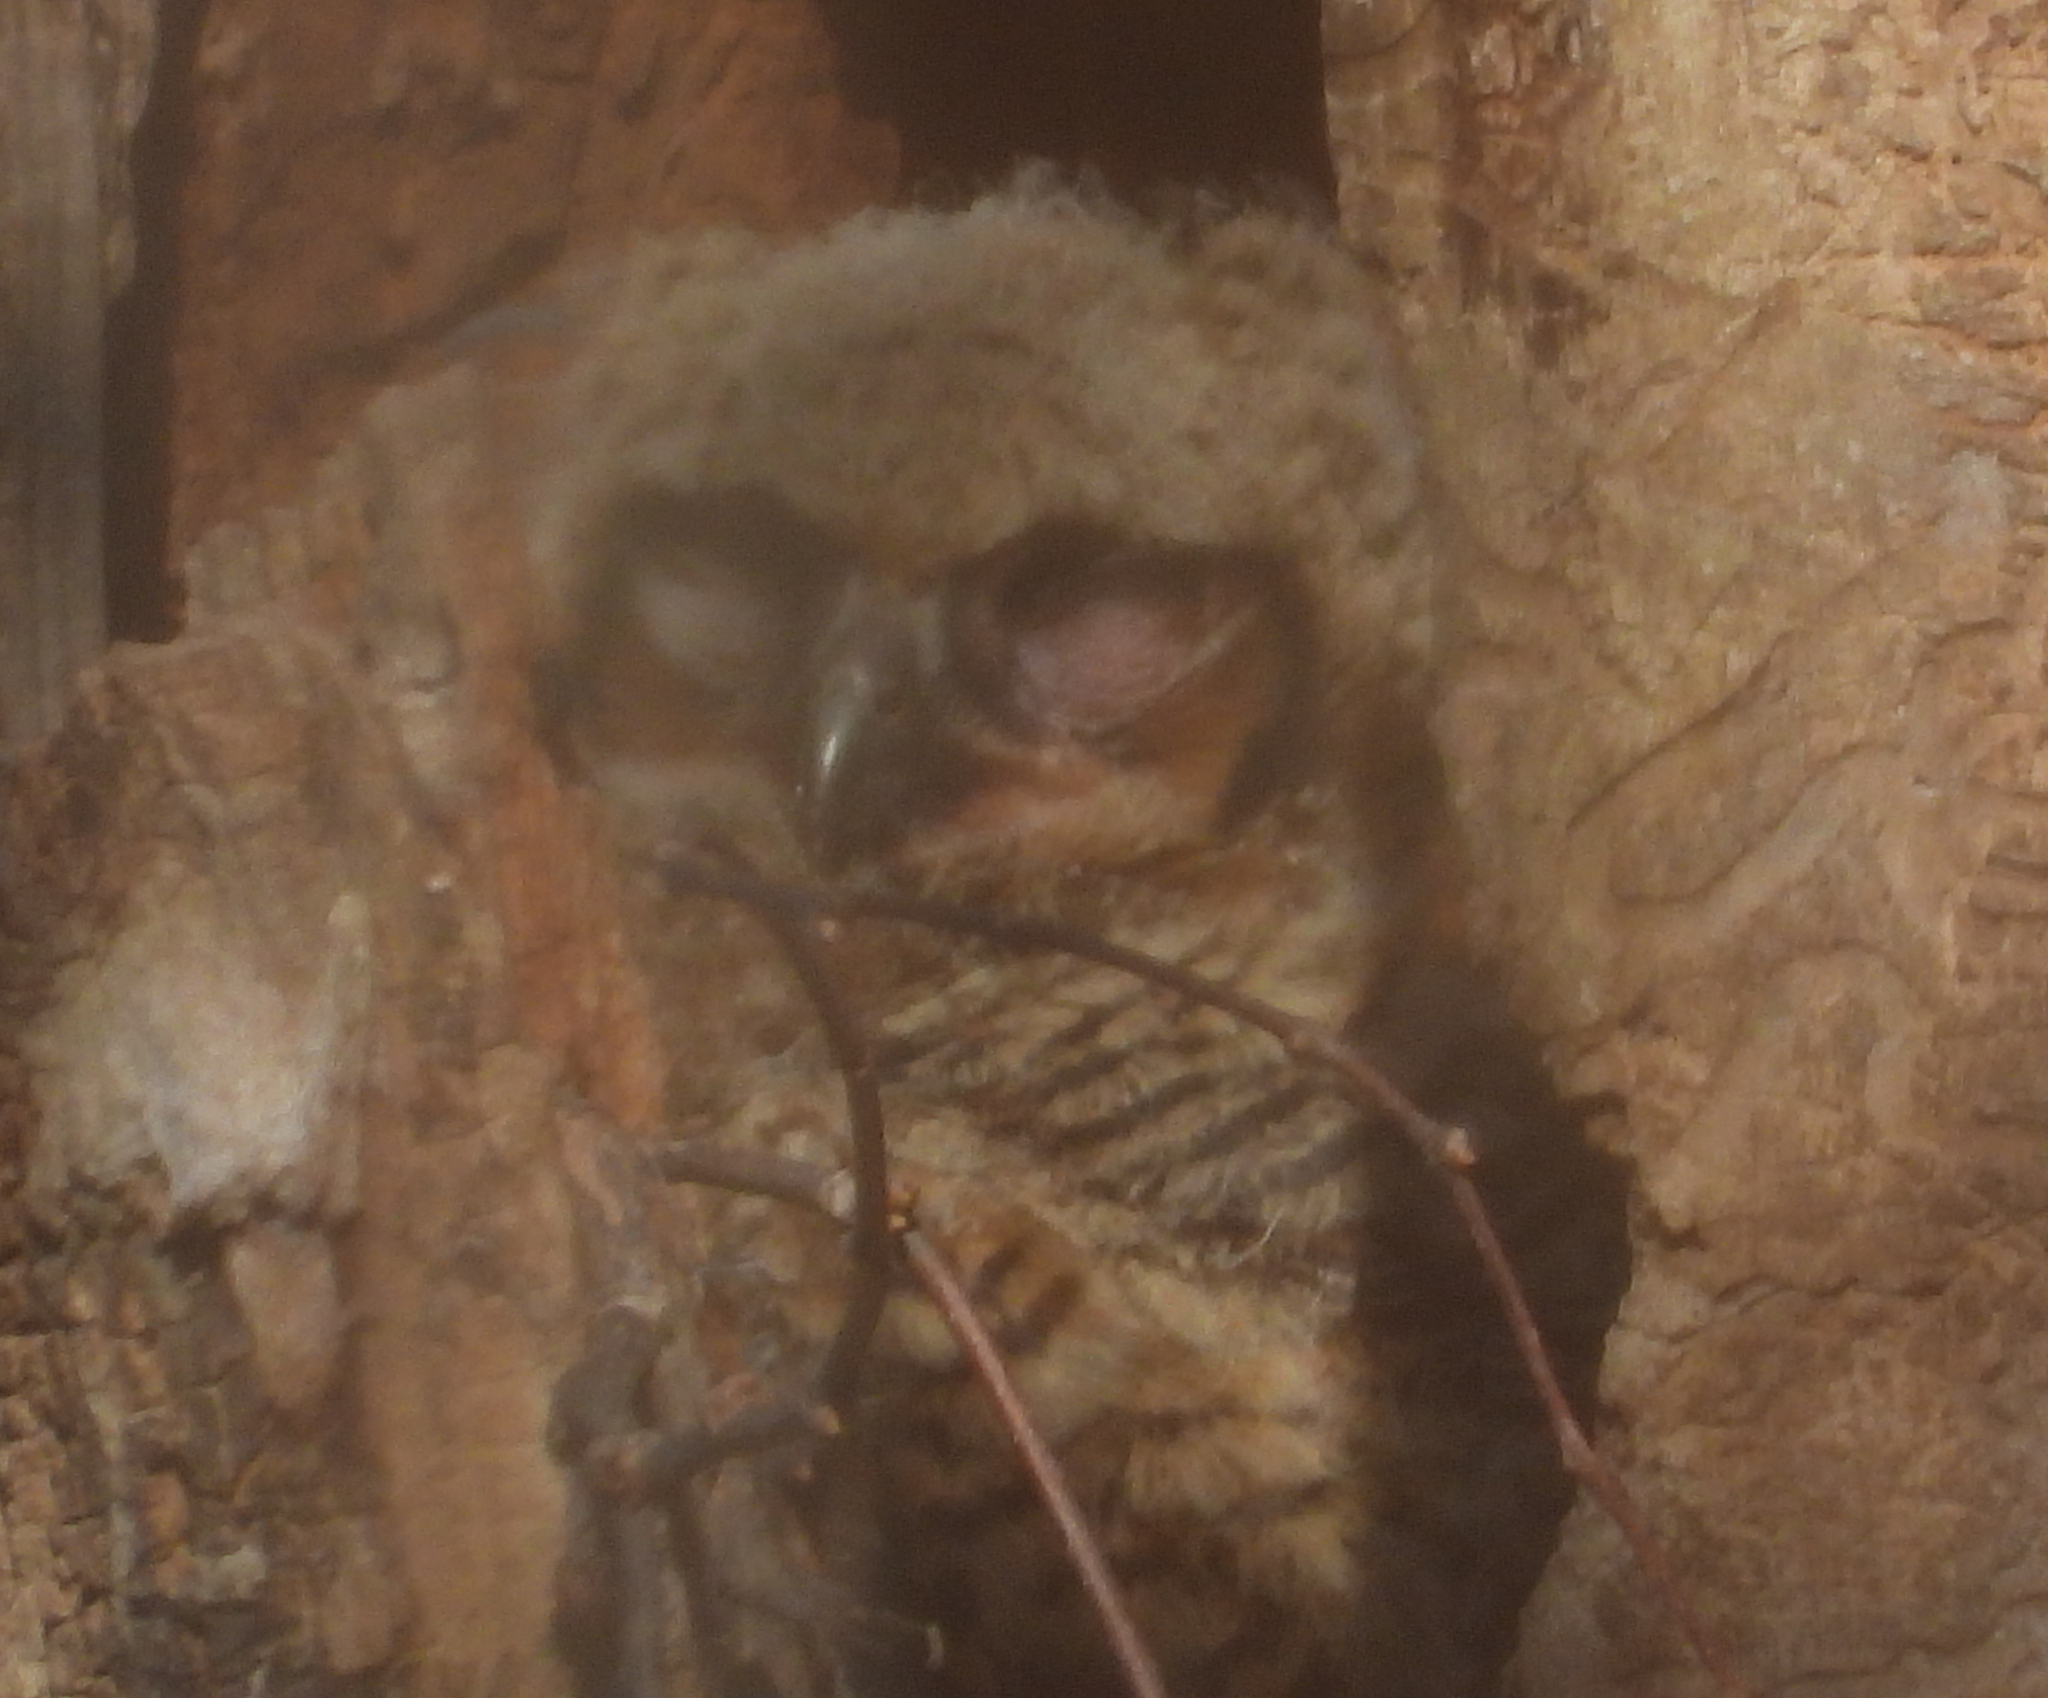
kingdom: Animalia
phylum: Chordata
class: Aves
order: Strigiformes
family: Strigidae
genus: Bubo
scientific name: Bubo virginianus
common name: Great horned owl
